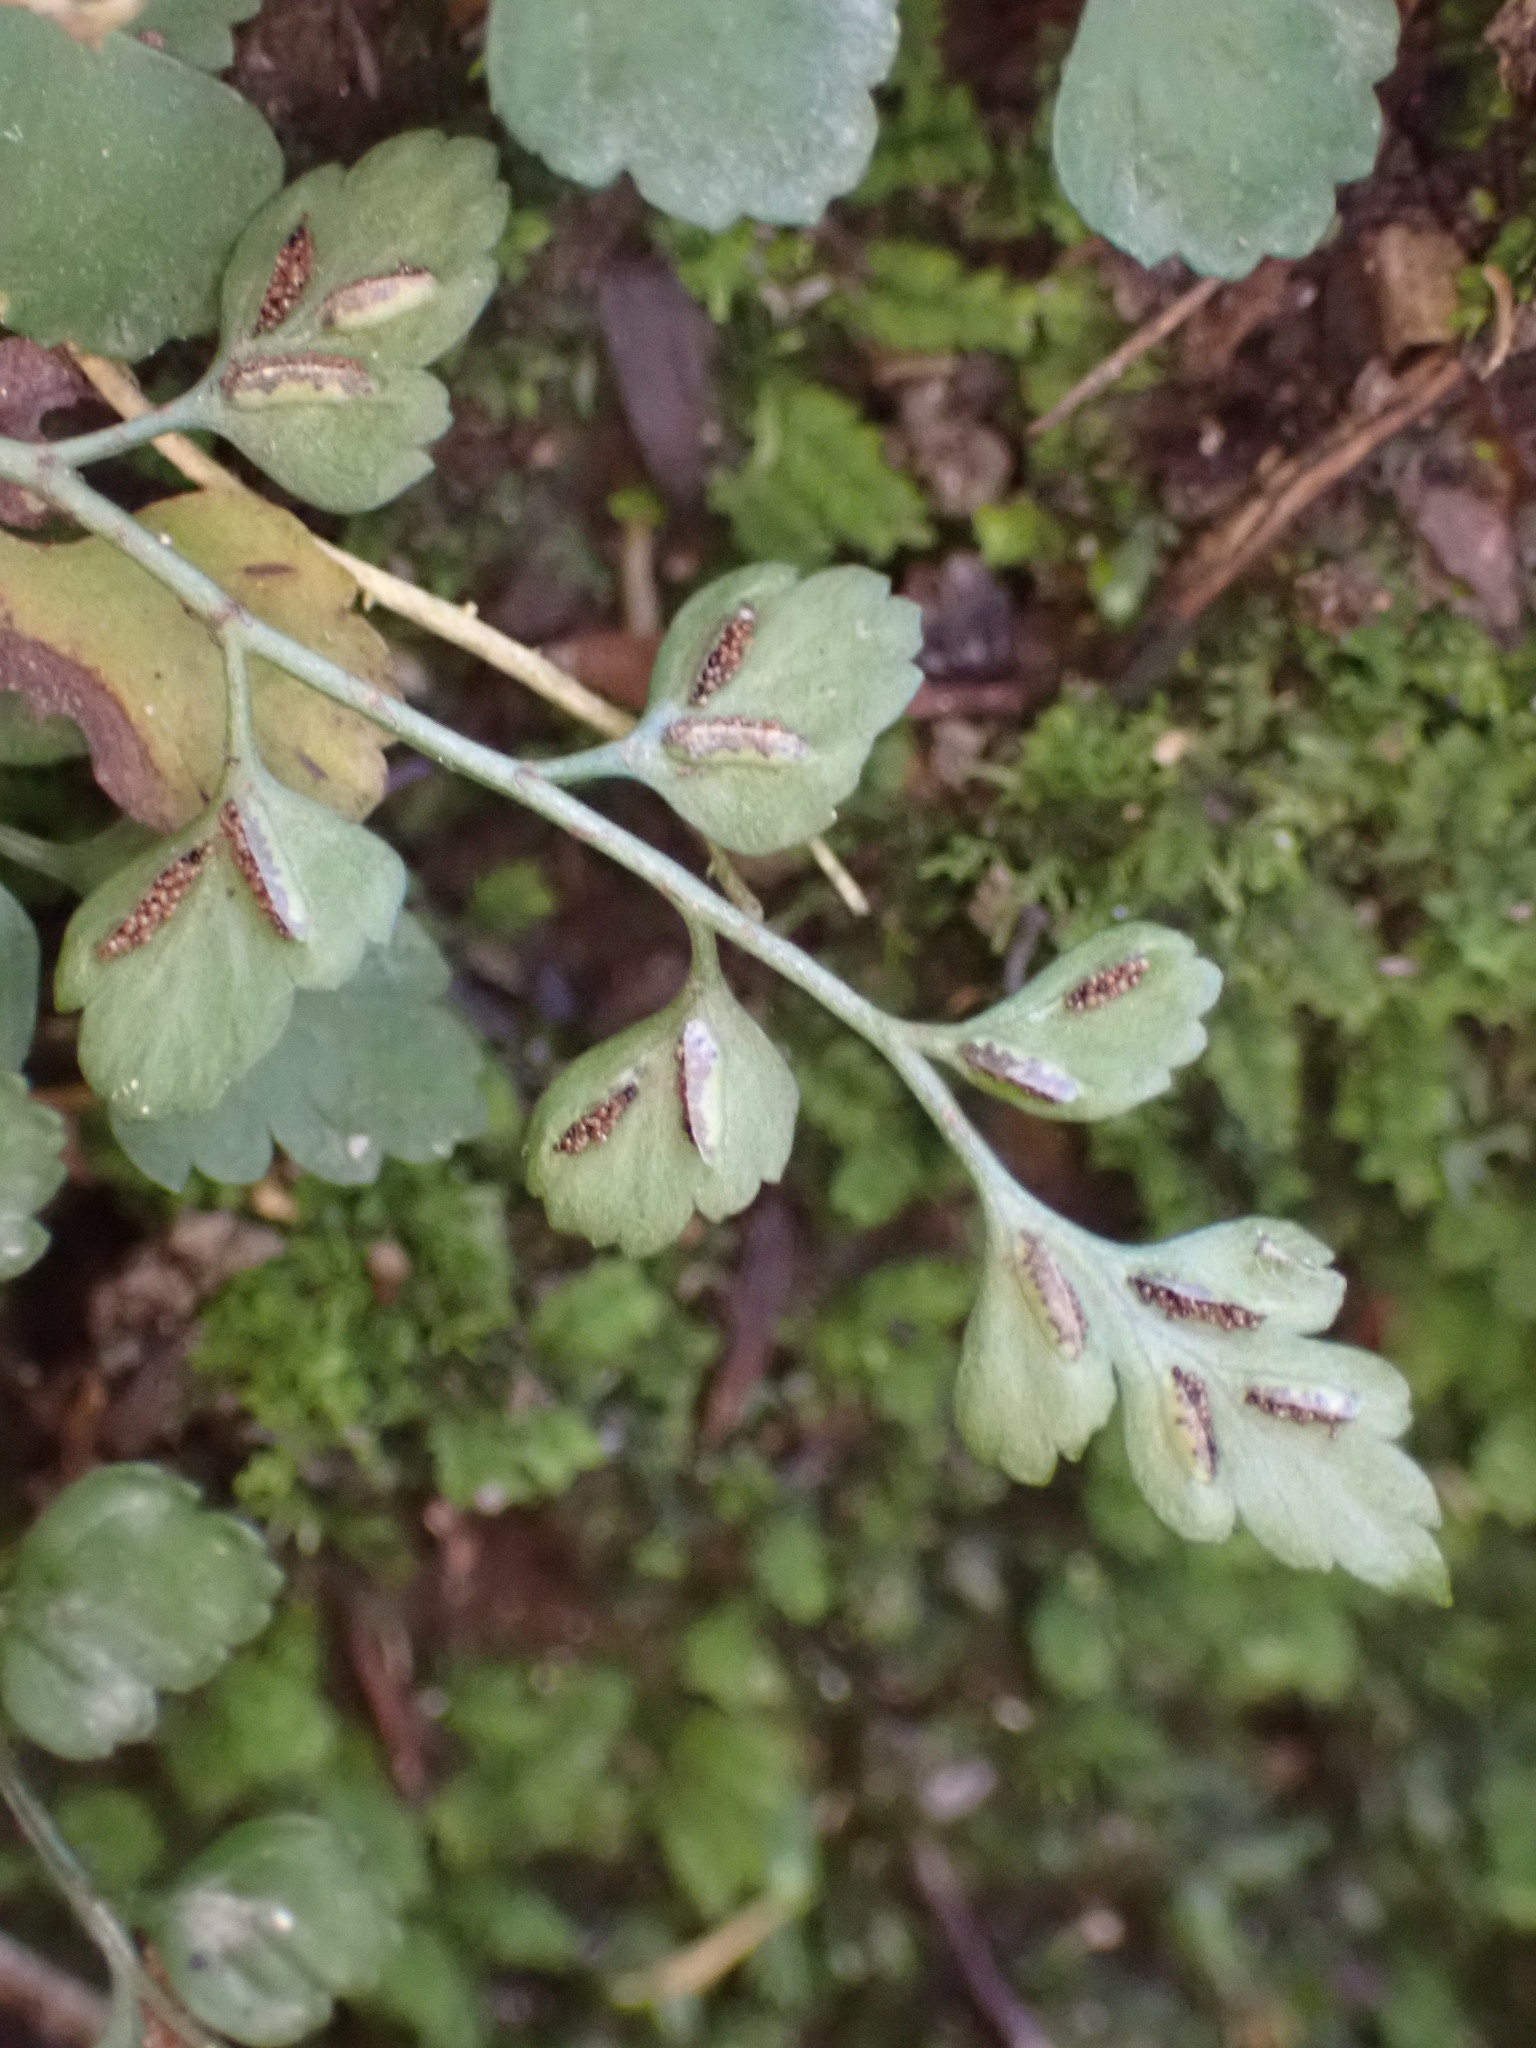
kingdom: Plantae
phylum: Tracheophyta
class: Polypodiopsida
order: Polypodiales
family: Aspleniaceae
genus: Asplenium
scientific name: Asplenium hookerianum
